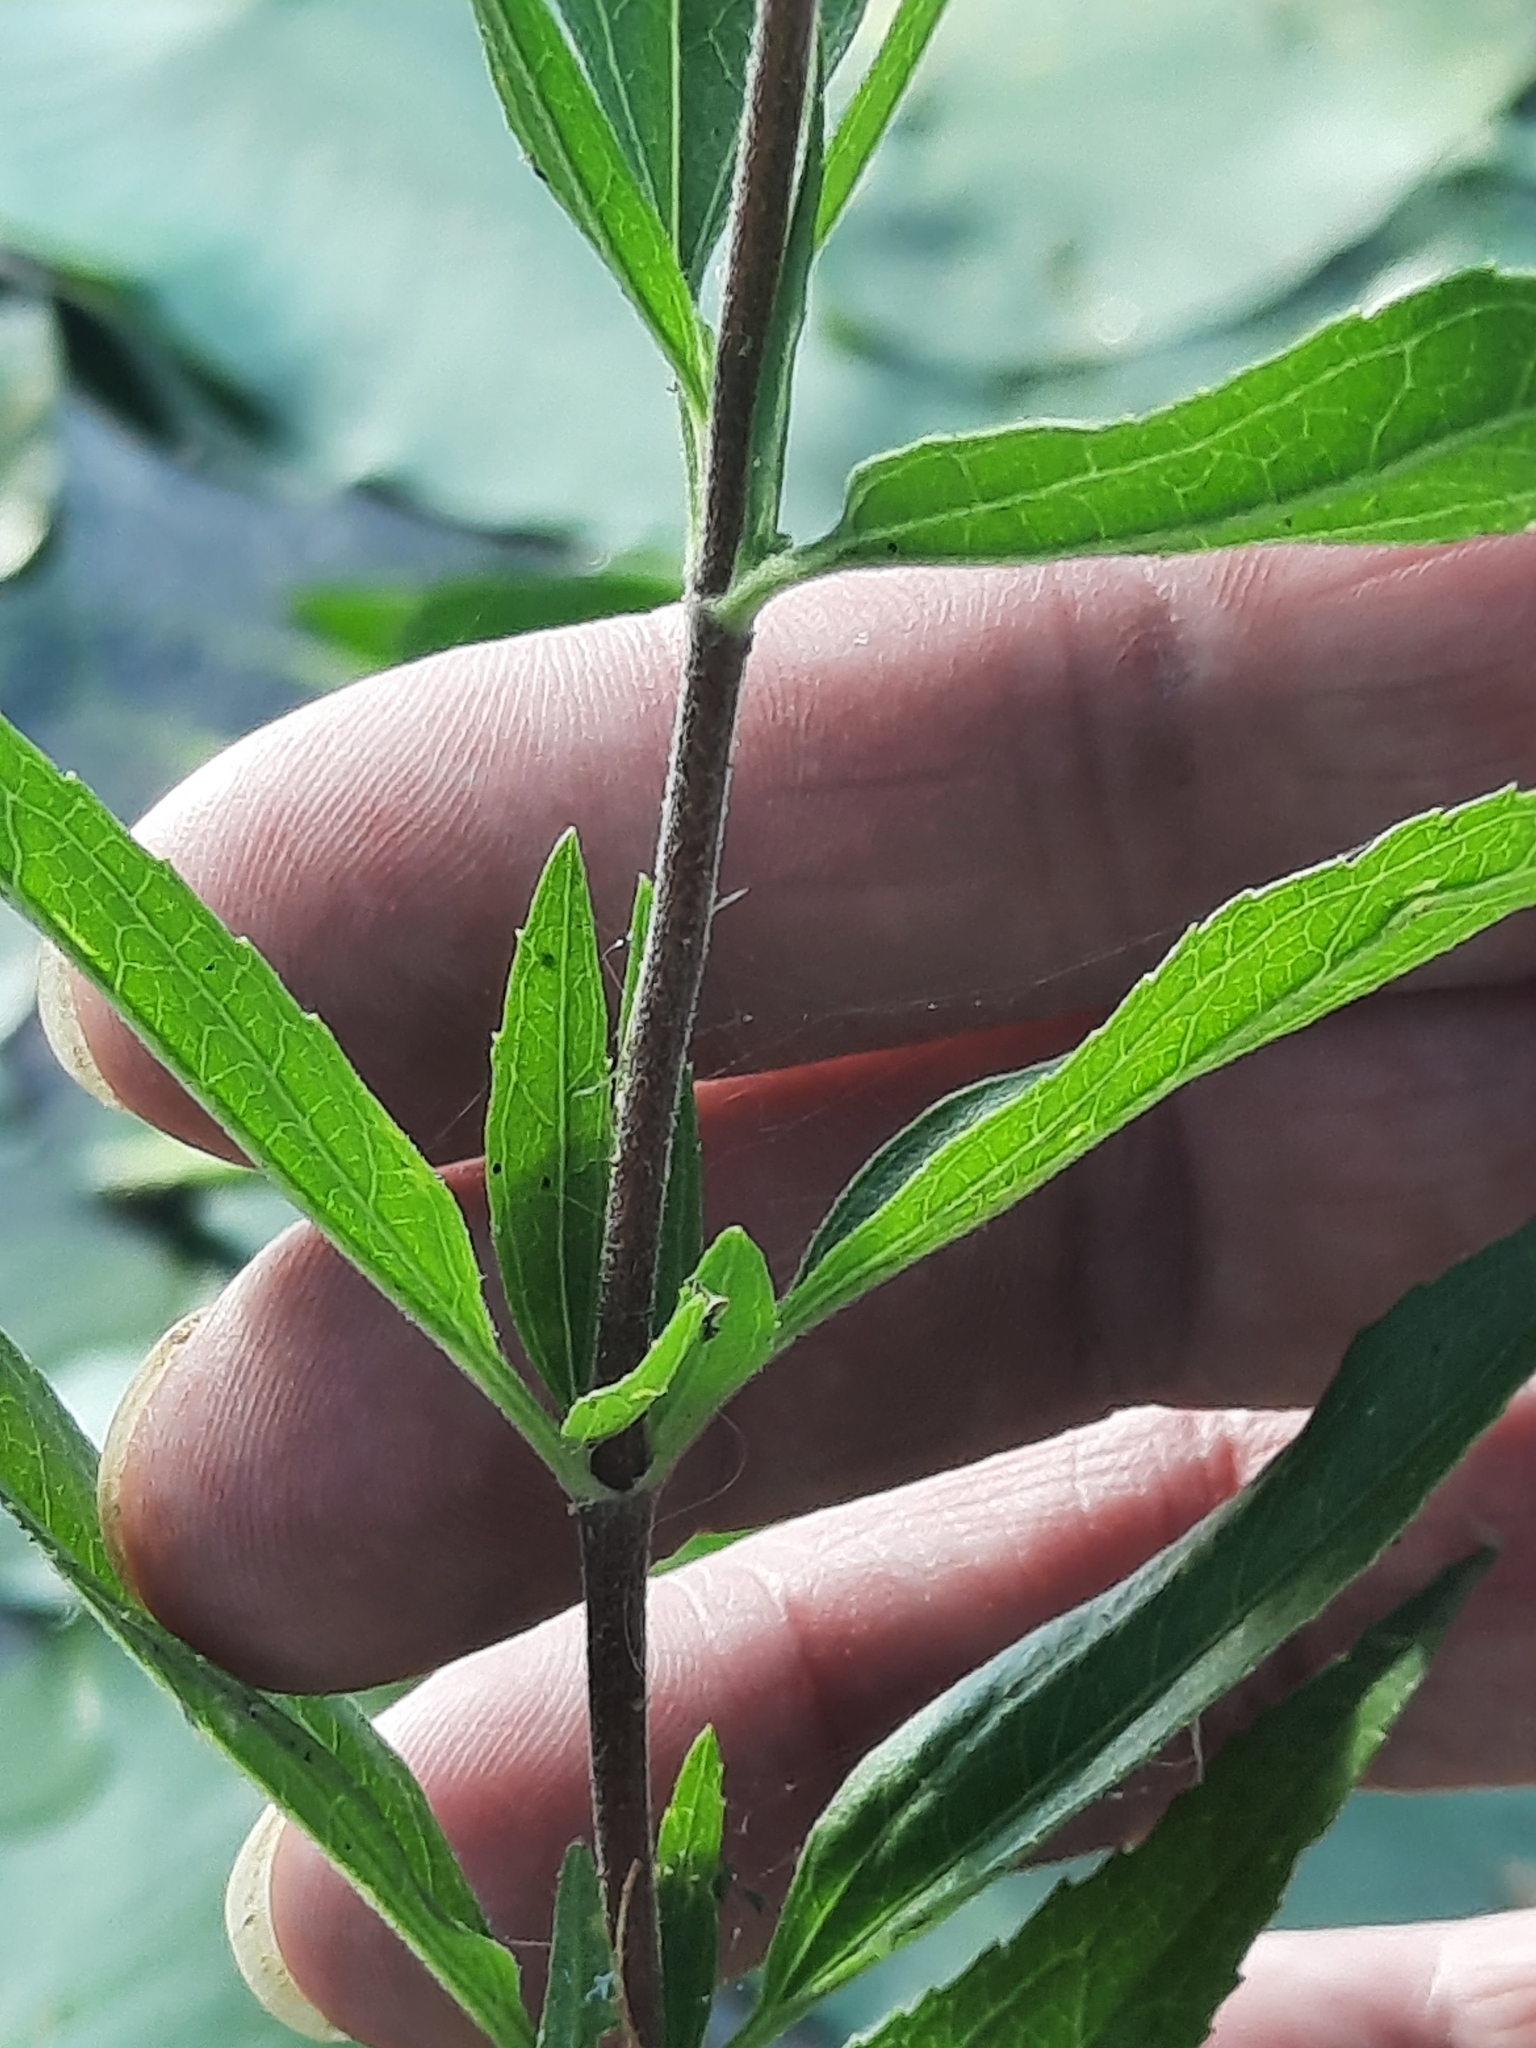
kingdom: Plantae
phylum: Tracheophyta
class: Magnoliopsida
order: Asterales
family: Asteraceae
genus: Eupatorium
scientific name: Eupatorium altissimum
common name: Tall thoroughwort
